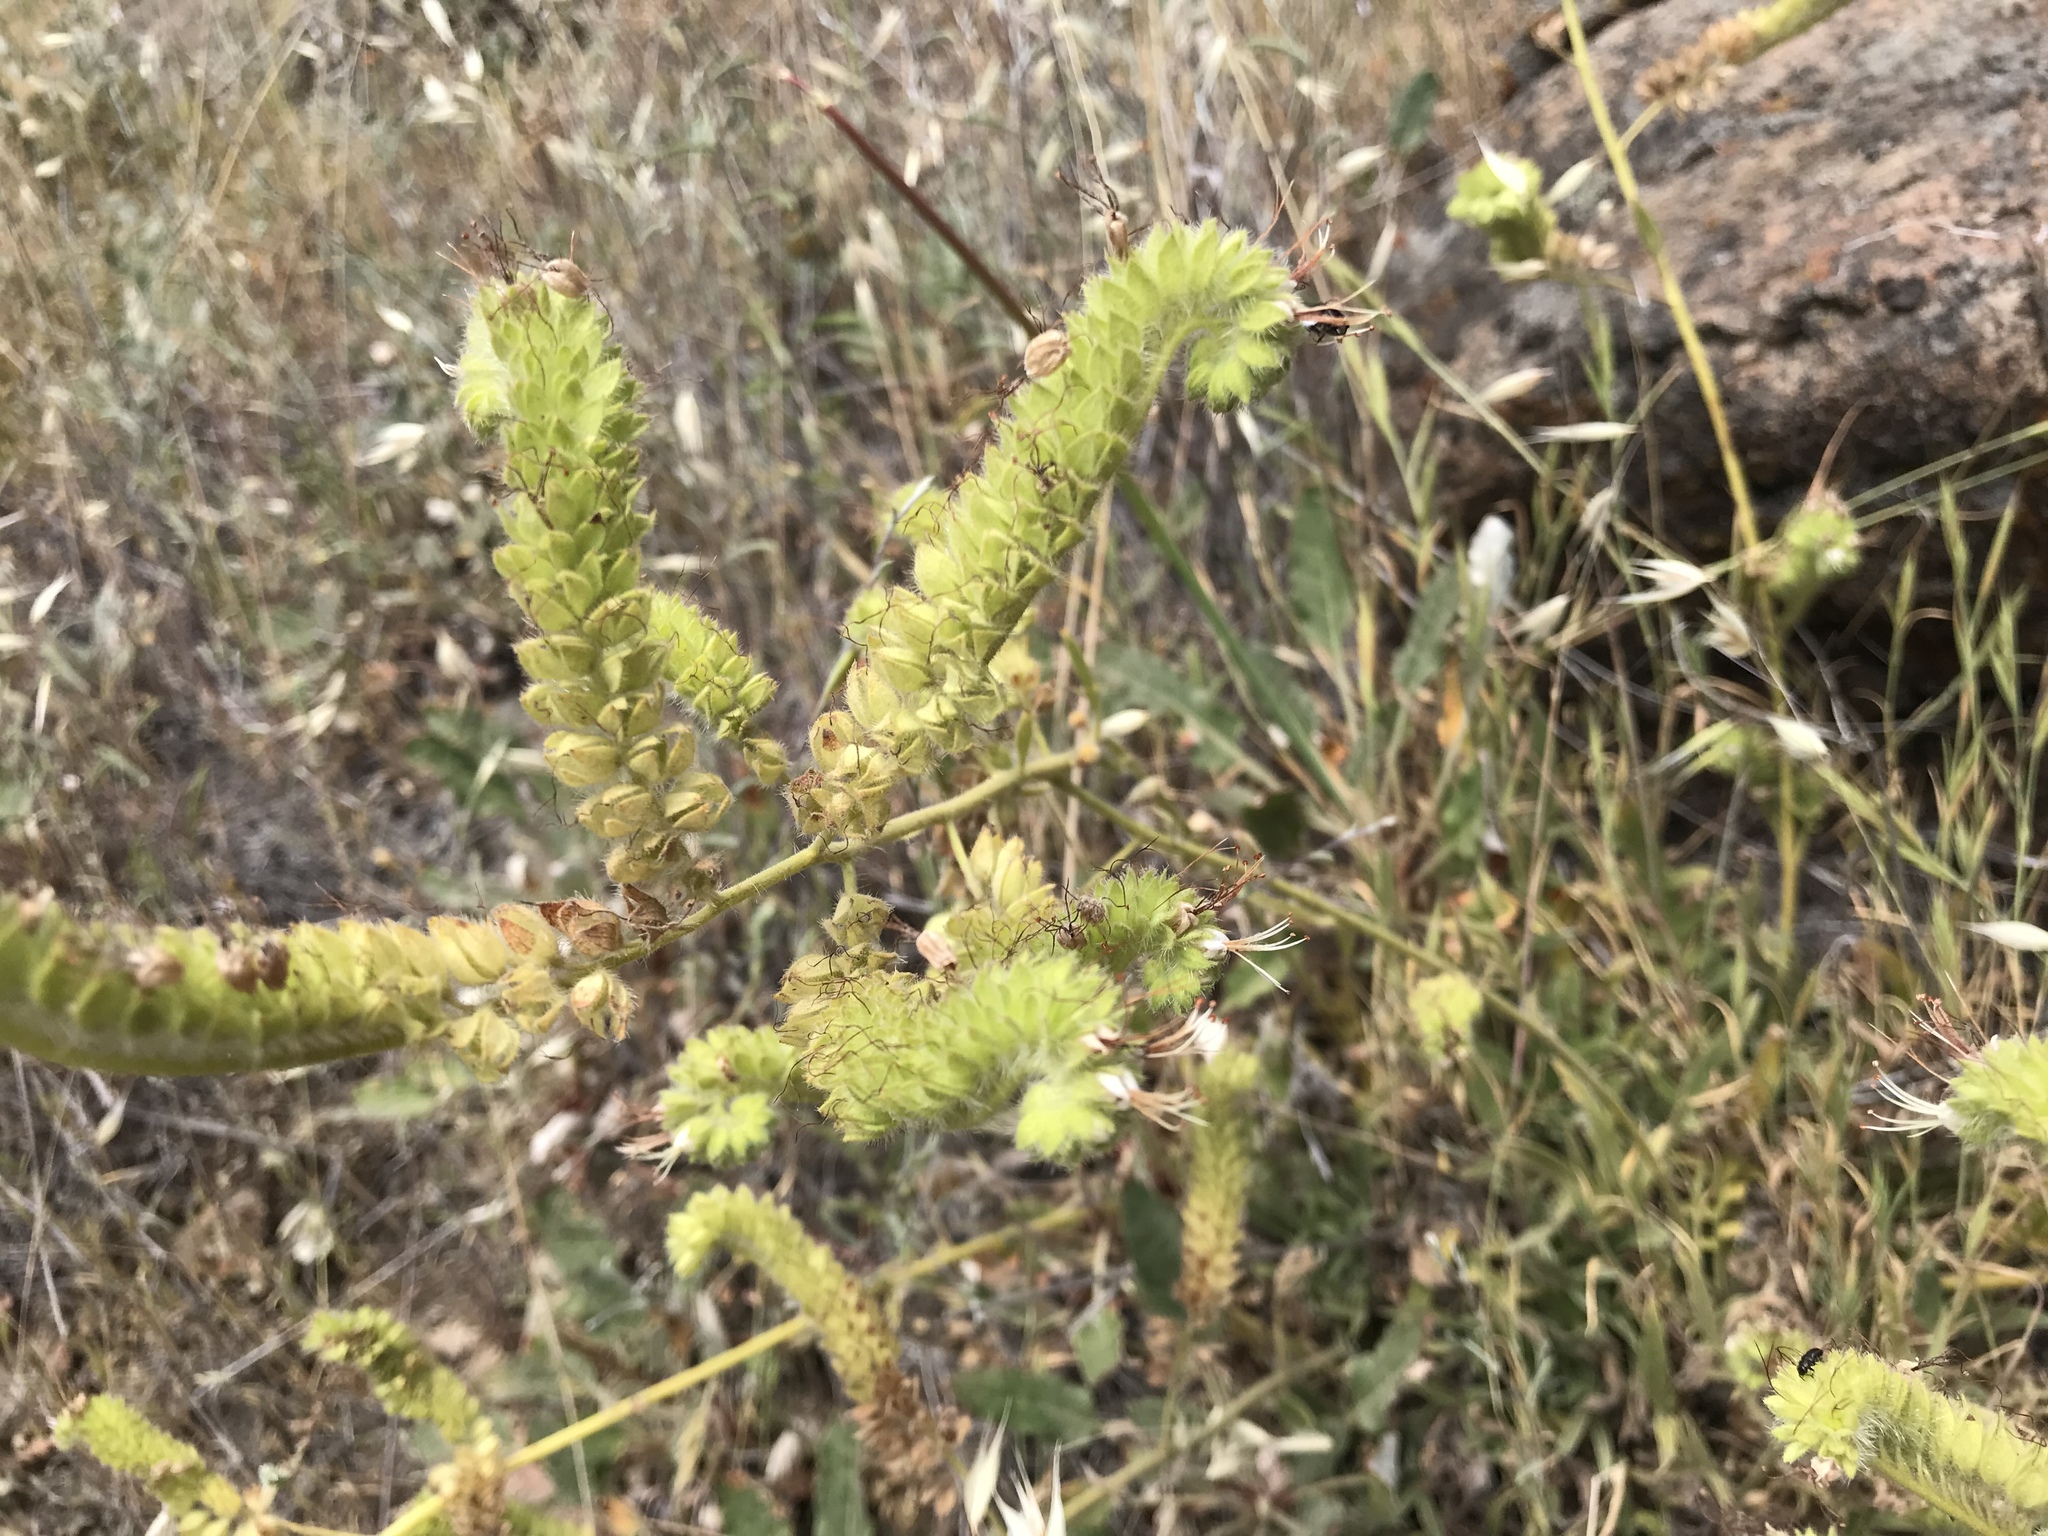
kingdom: Plantae
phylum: Tracheophyta
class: Magnoliopsida
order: Boraginales
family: Hydrophyllaceae
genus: Phacelia
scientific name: Phacelia imbricata
